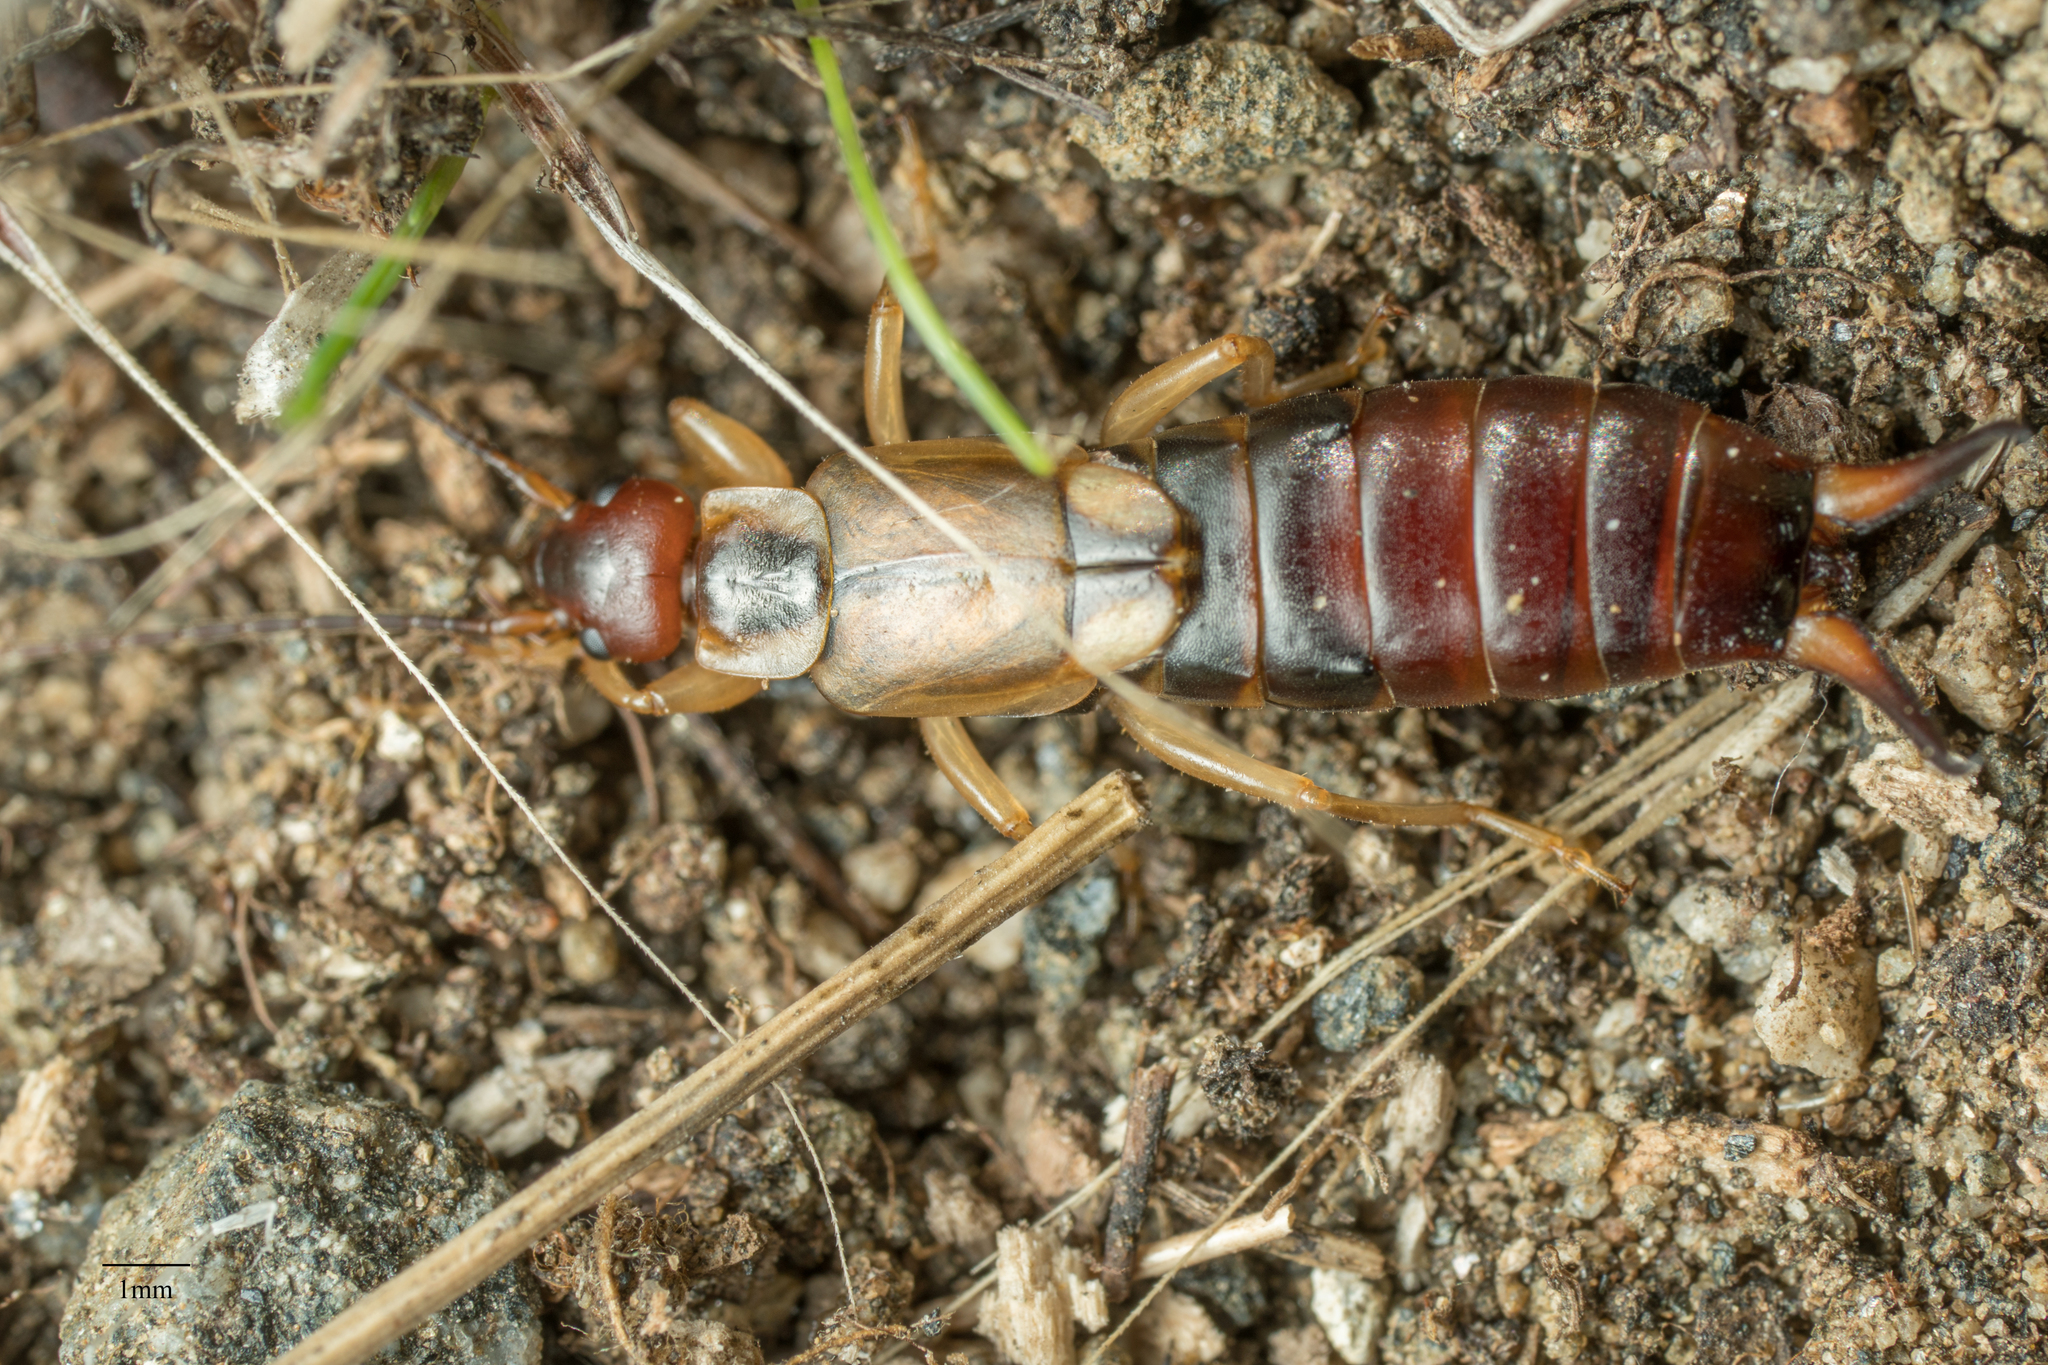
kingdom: Animalia
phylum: Arthropoda
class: Insecta
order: Dermaptera
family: Forficulidae
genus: Forficula
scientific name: Forficula
